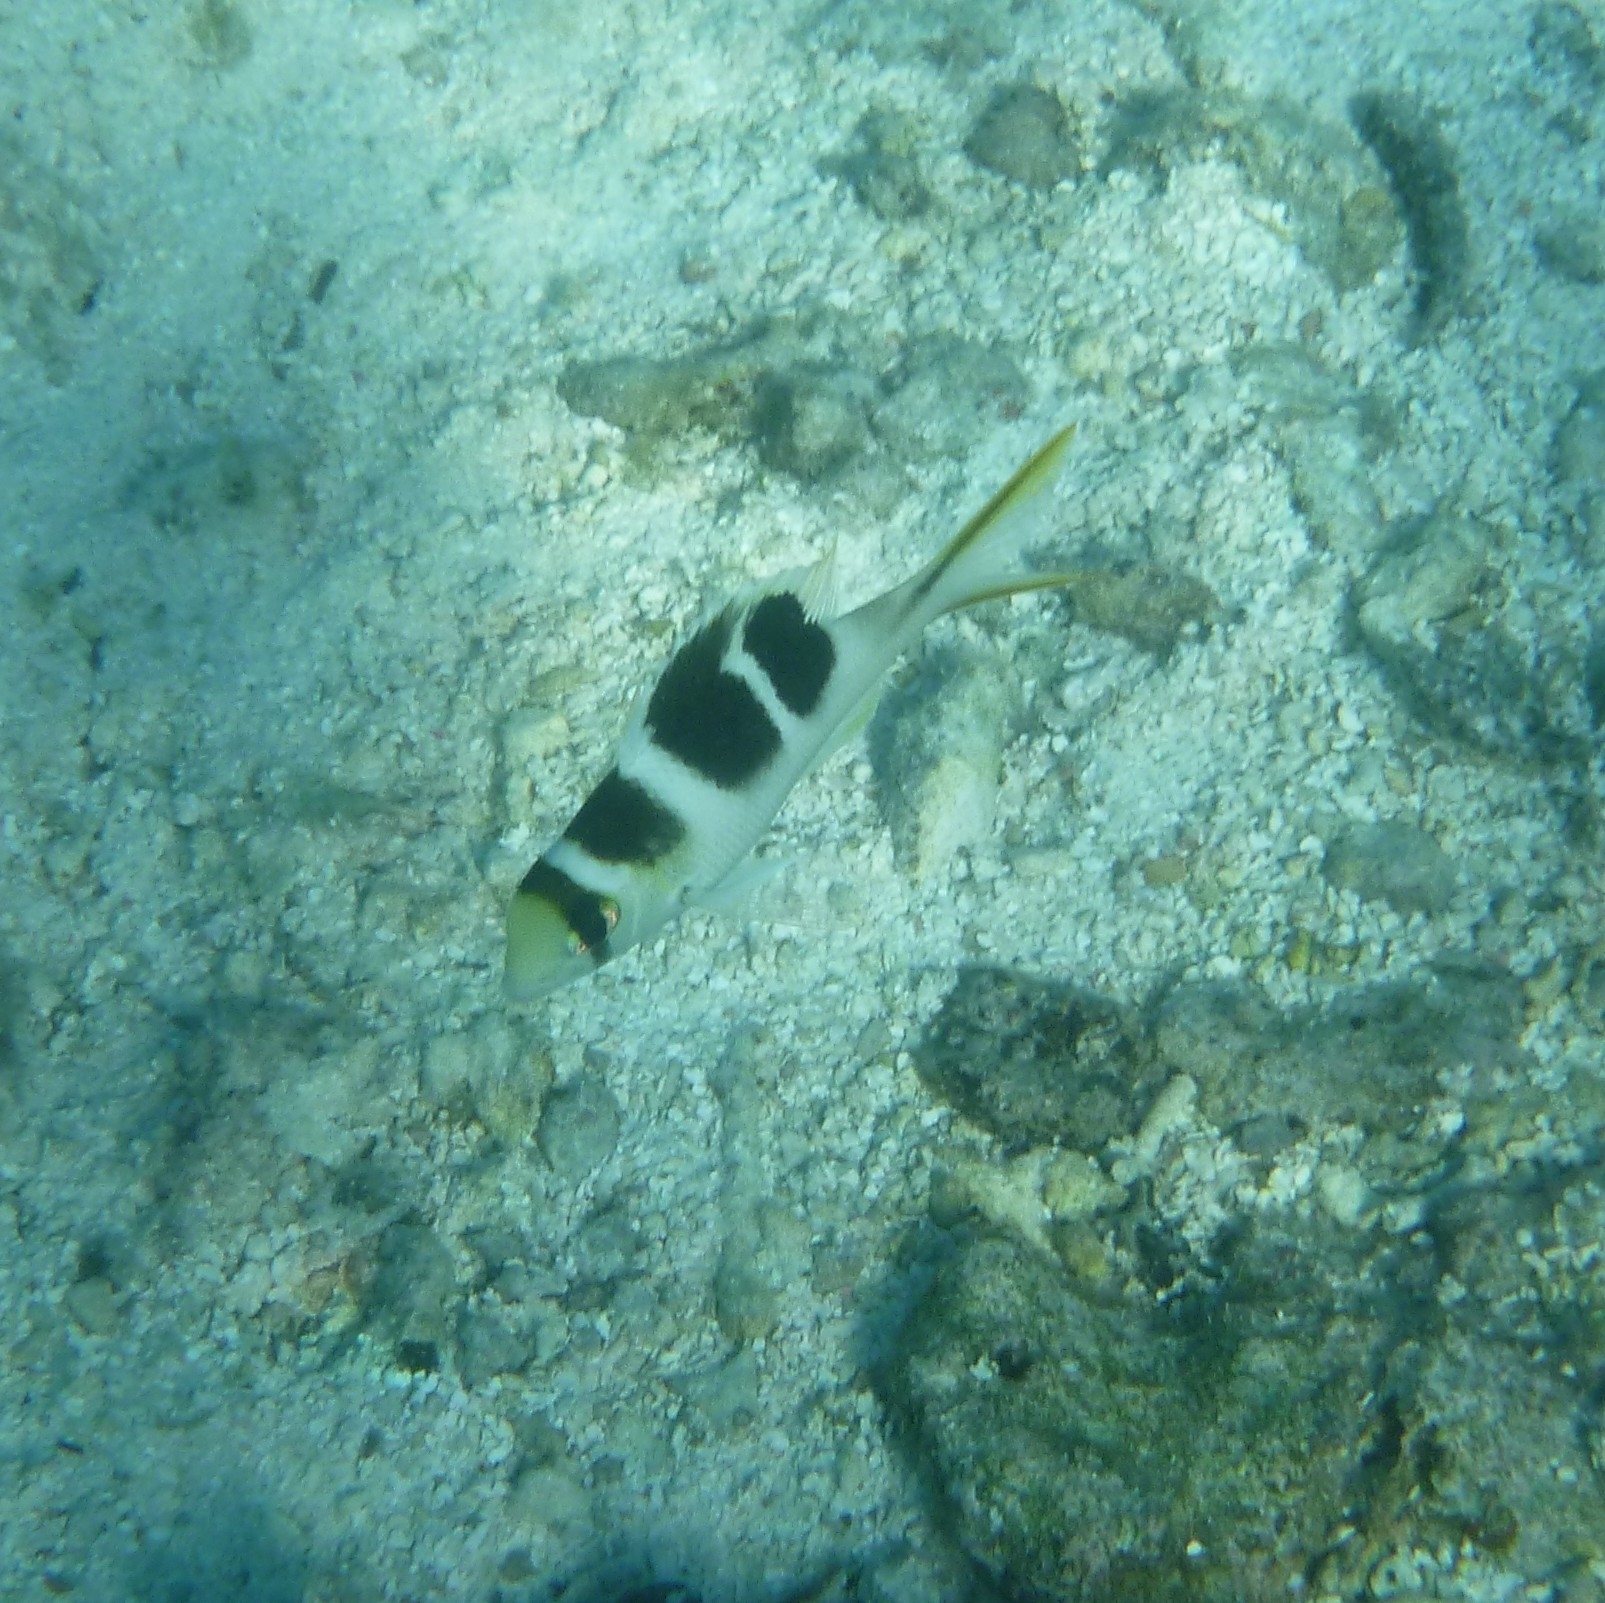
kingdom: Animalia
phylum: Chordata
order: Perciformes
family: Lethrinidae
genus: Monotaxis
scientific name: Monotaxis grandoculis
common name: Bigeye emperor
